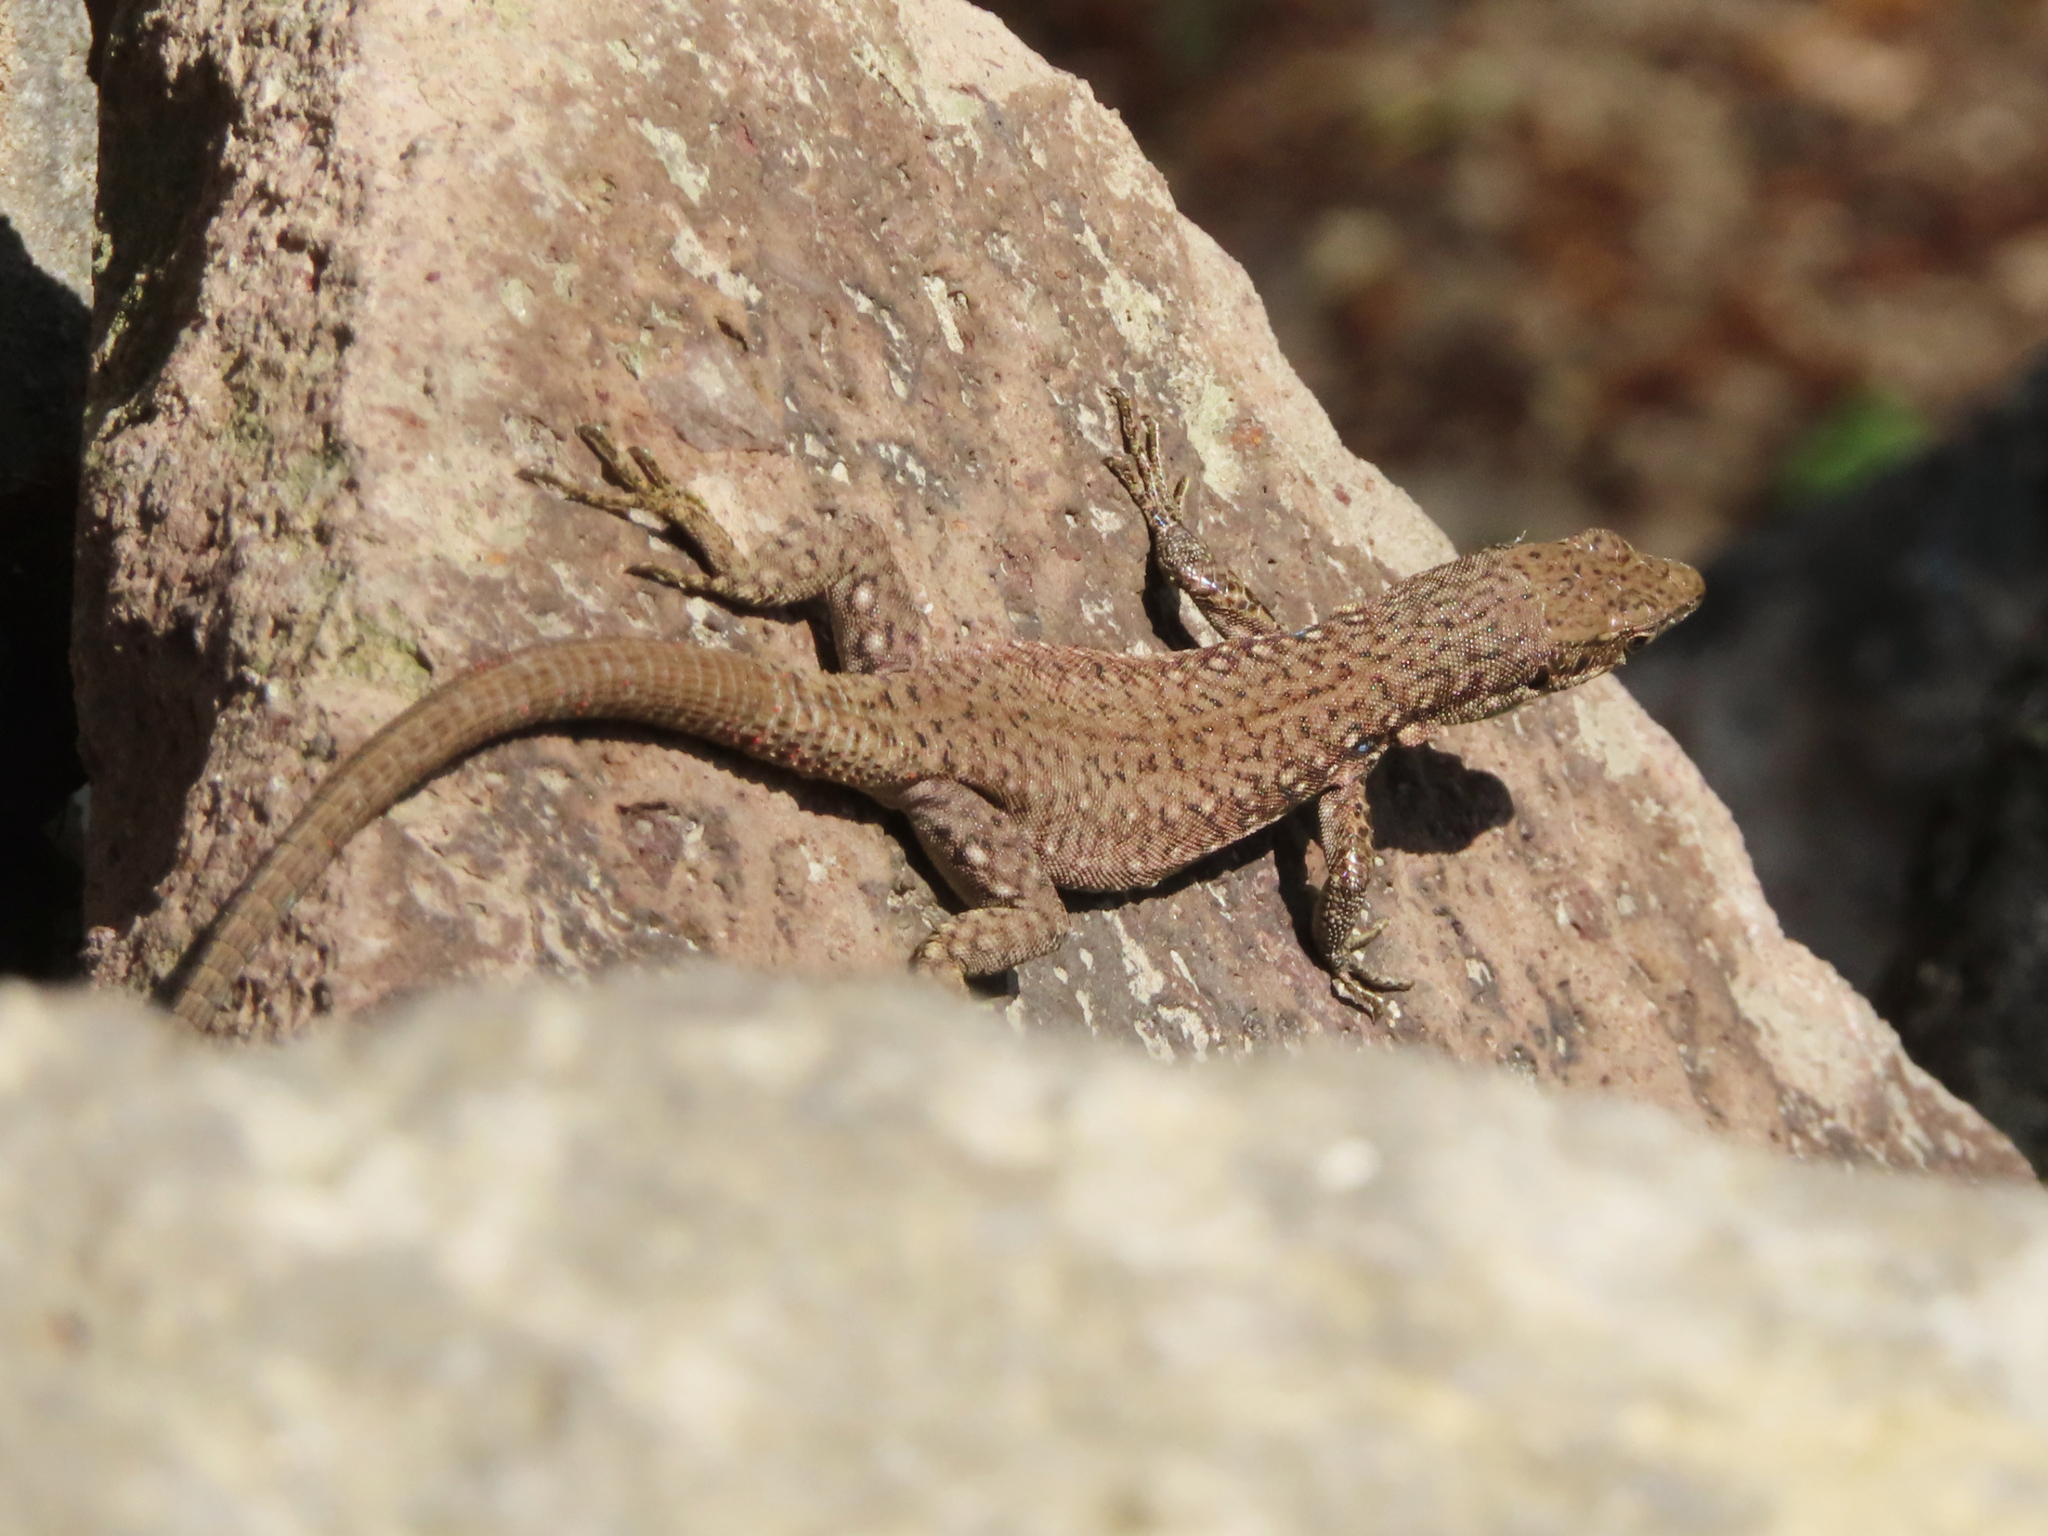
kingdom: Animalia
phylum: Chordata
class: Squamata
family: Lacertidae
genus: Darevskia
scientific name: Darevskia
